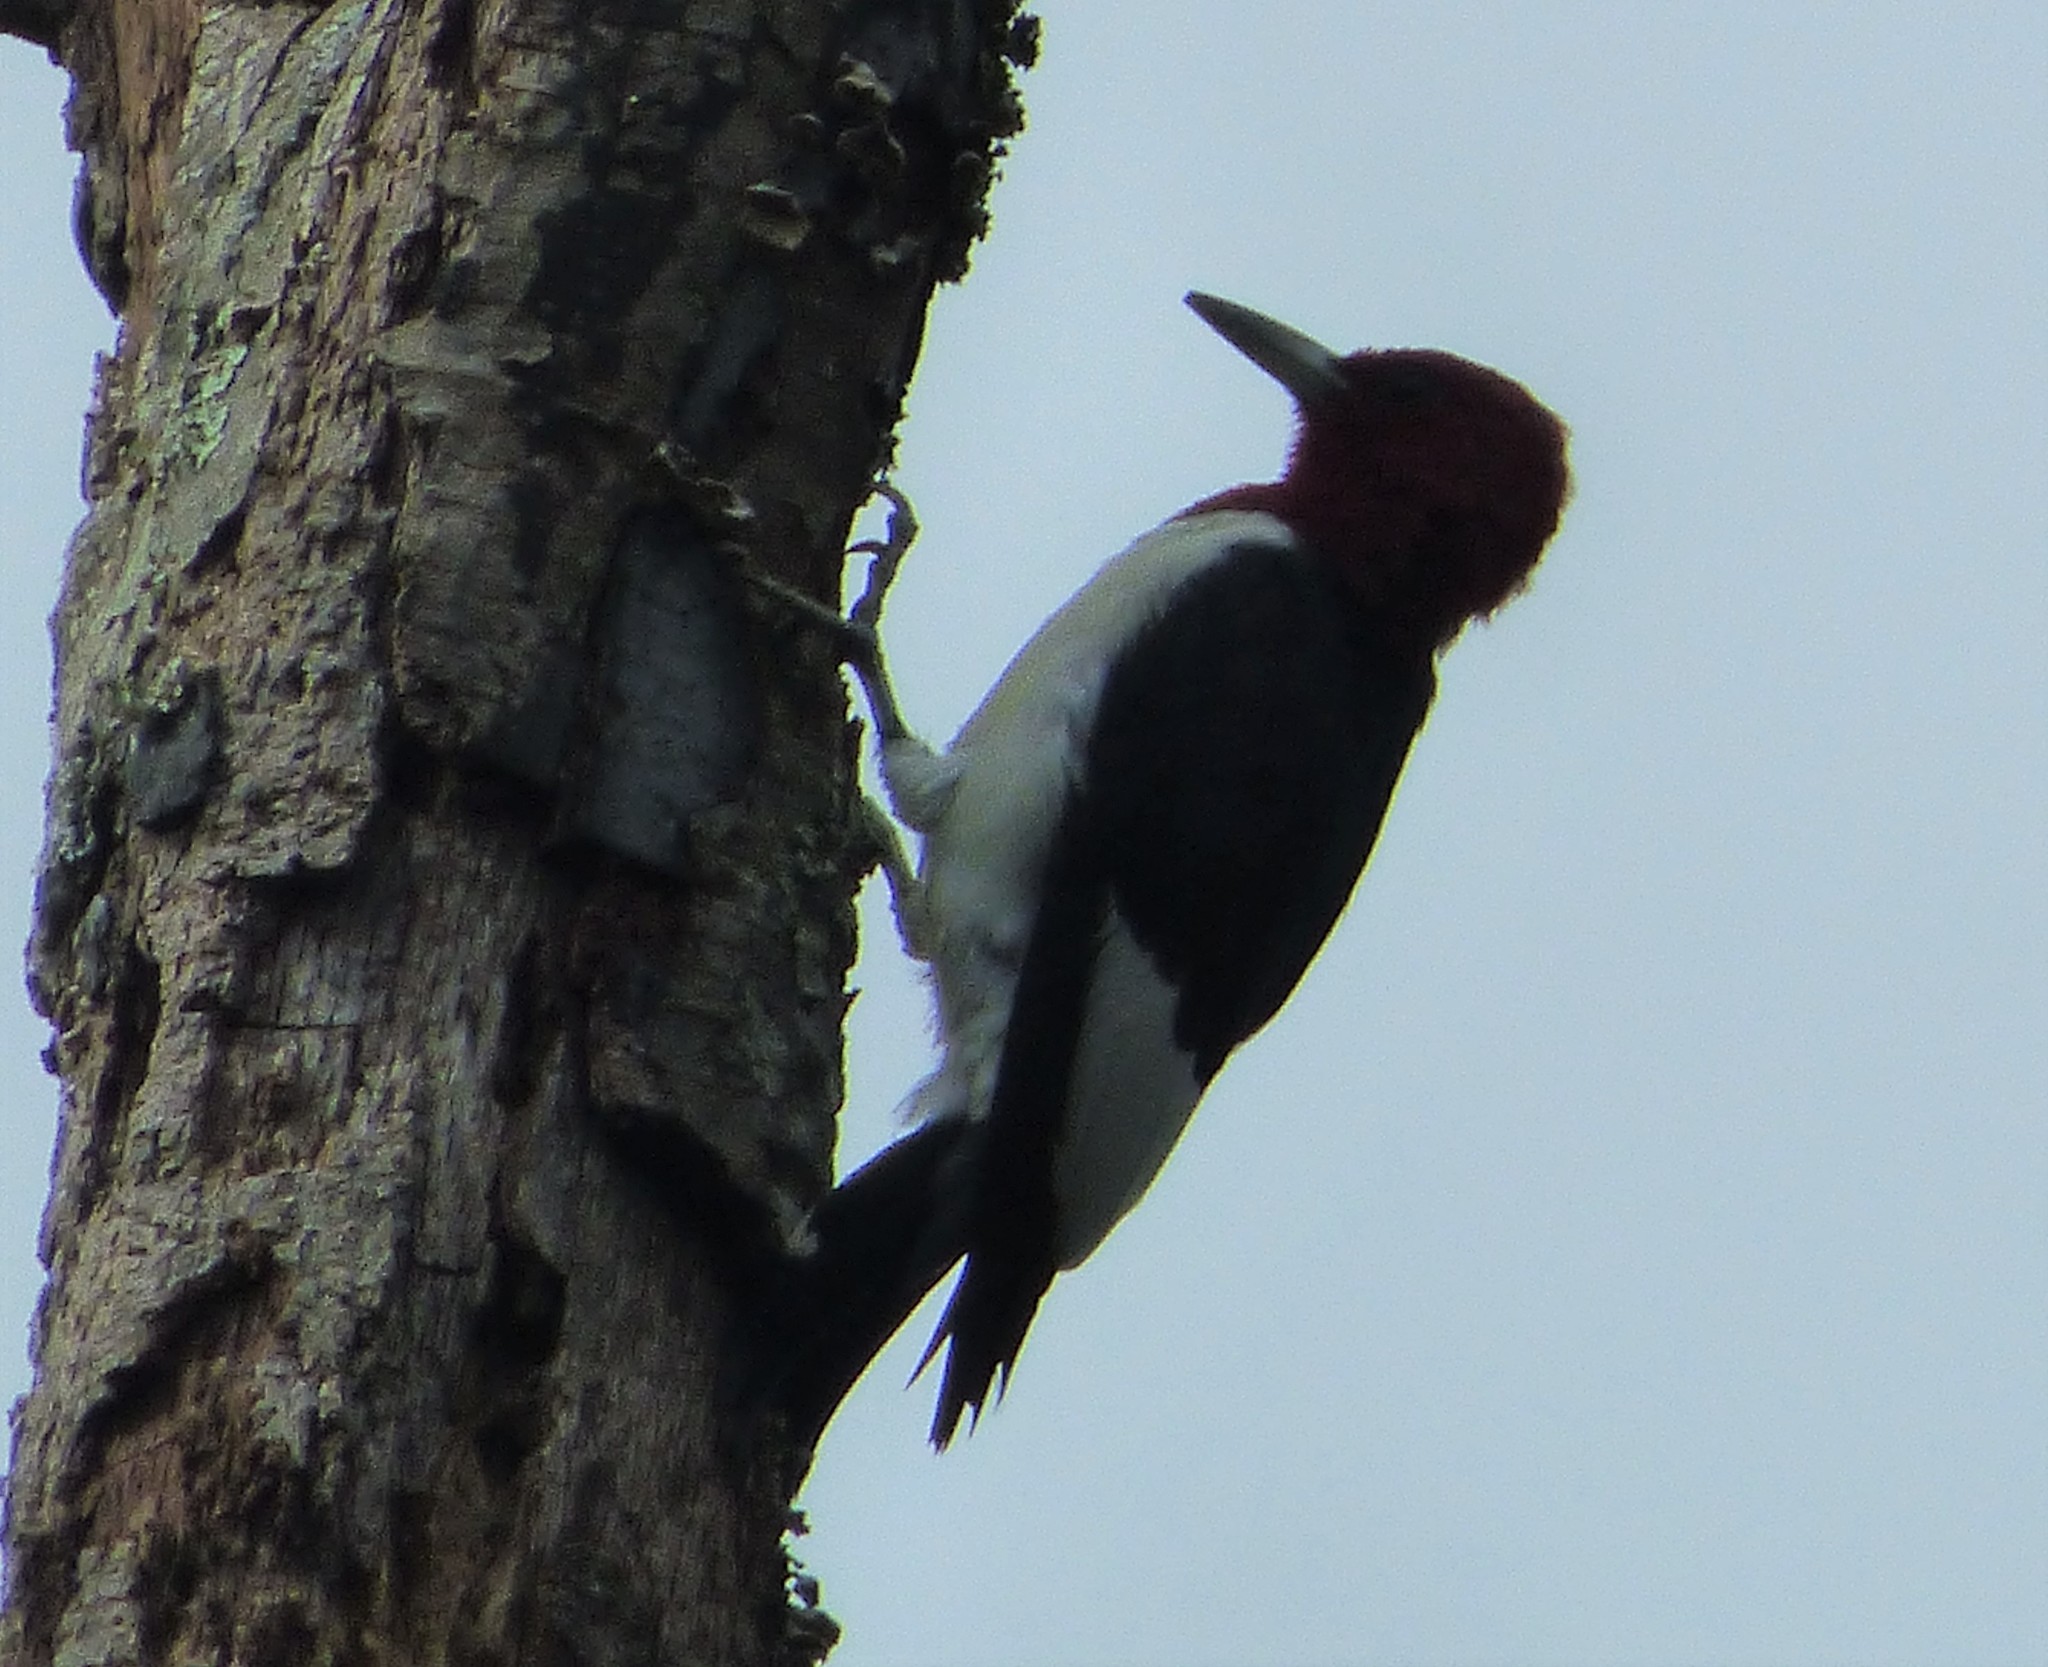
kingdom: Animalia
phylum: Chordata
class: Aves
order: Piciformes
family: Picidae
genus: Melanerpes
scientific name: Melanerpes erythrocephalus
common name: Red-headed woodpecker
